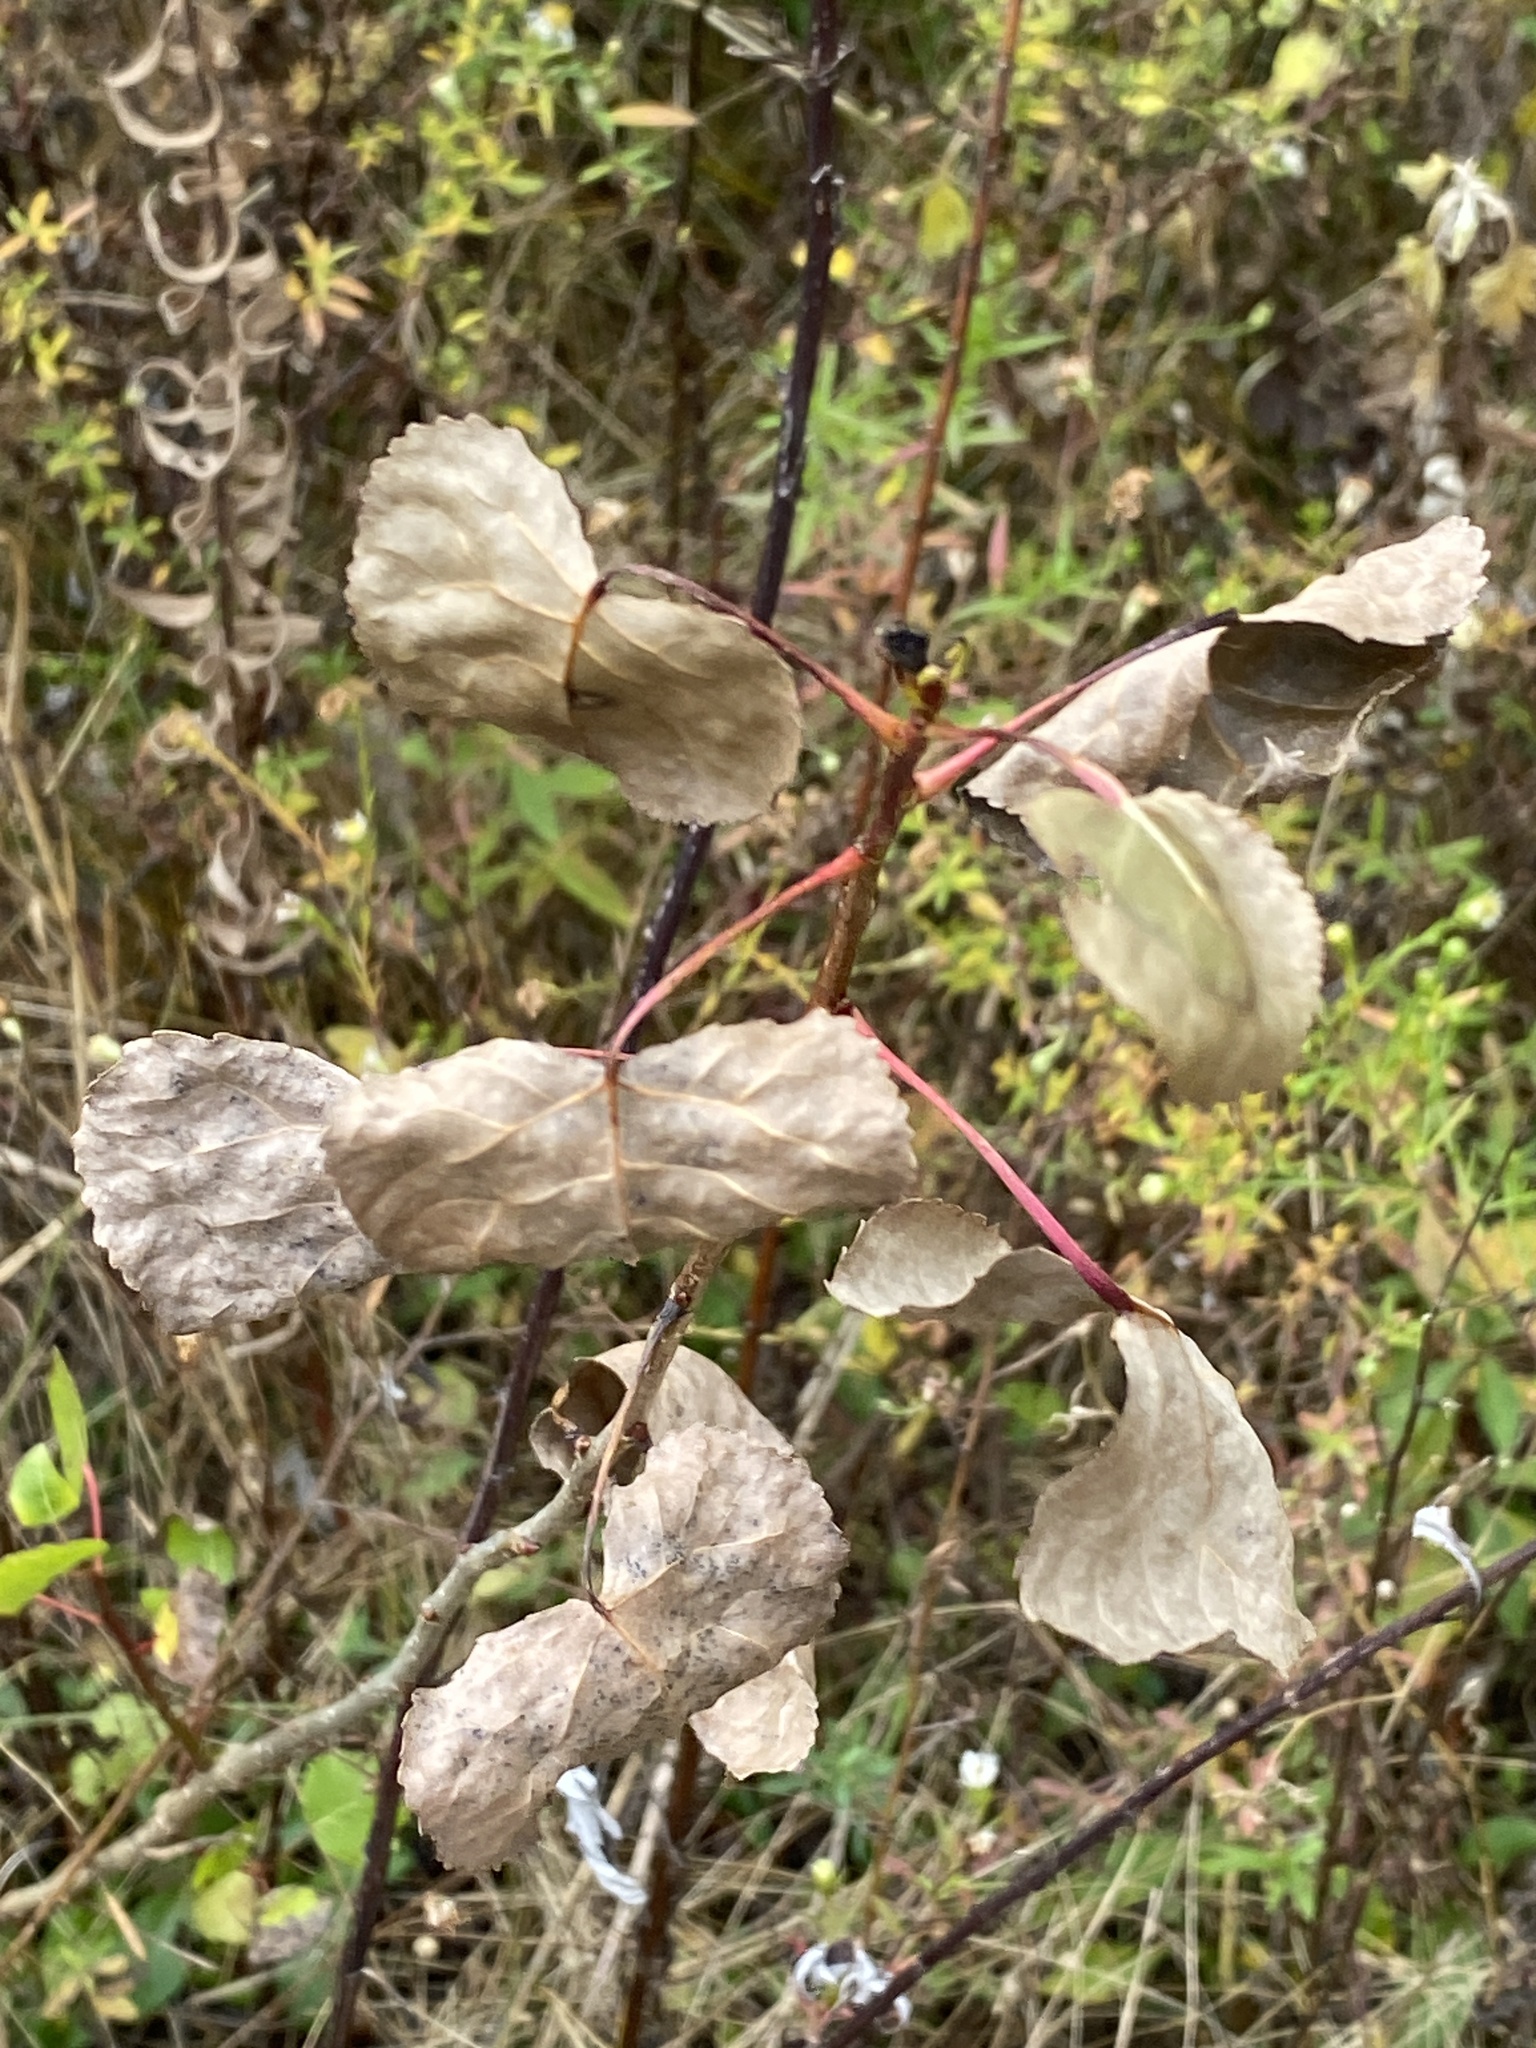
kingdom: Plantae
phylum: Tracheophyta
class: Magnoliopsida
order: Malpighiales
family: Salicaceae
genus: Populus
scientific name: Populus deltoides
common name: Eastern cottonwood
